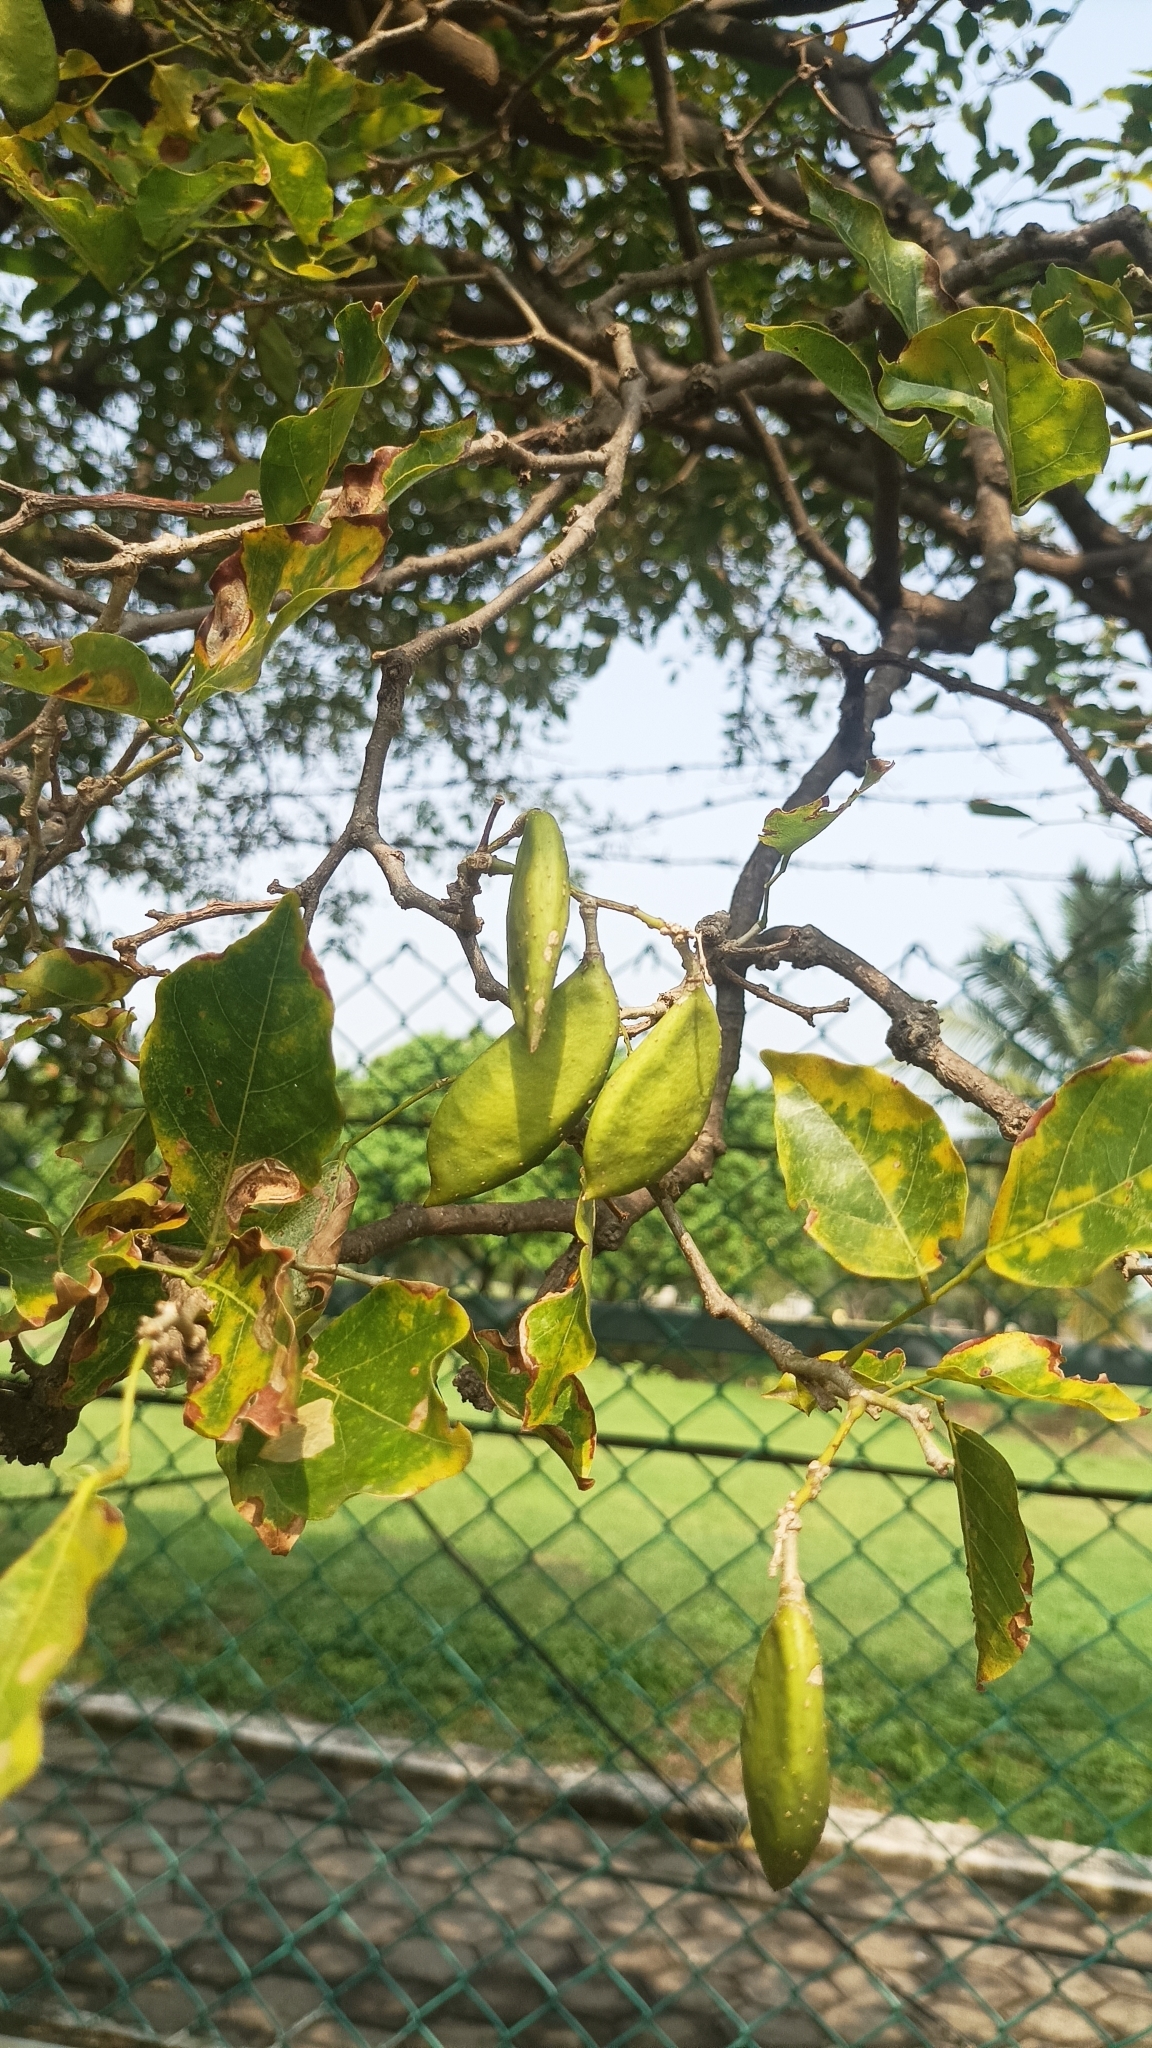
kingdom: Plantae
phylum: Tracheophyta
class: Magnoliopsida
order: Fabales
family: Fabaceae
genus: Pongamia
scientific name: Pongamia pinnata
